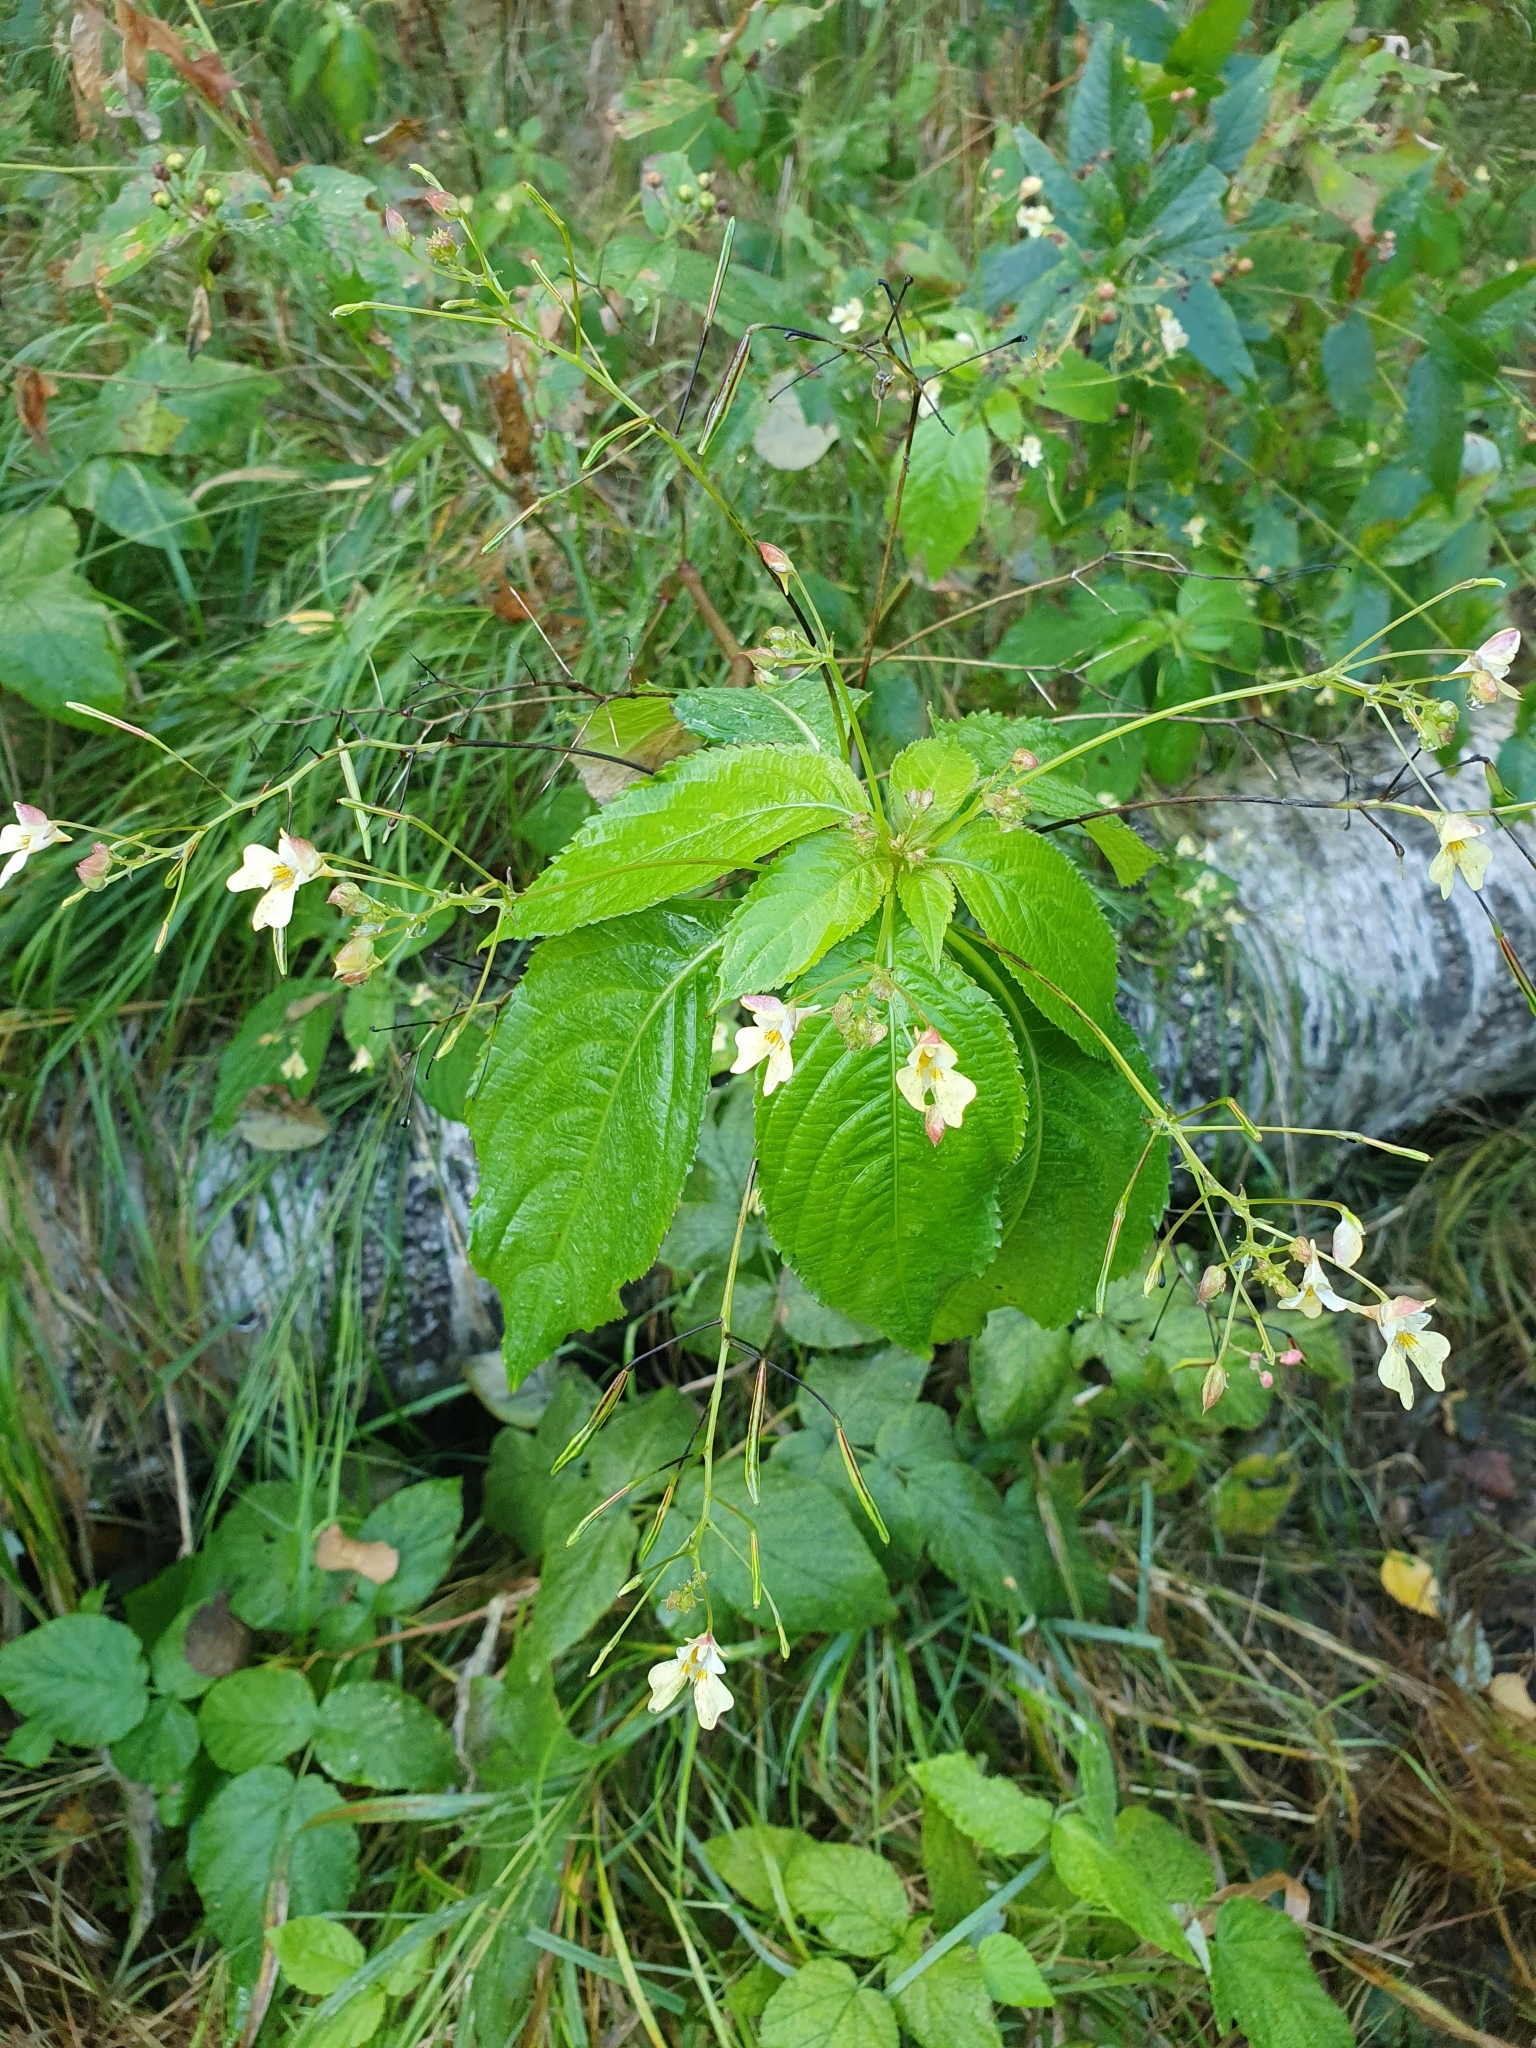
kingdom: Plantae
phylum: Tracheophyta
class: Magnoliopsida
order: Ericales
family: Balsaminaceae
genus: Impatiens
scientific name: Impatiens parviflora
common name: Small balsam
